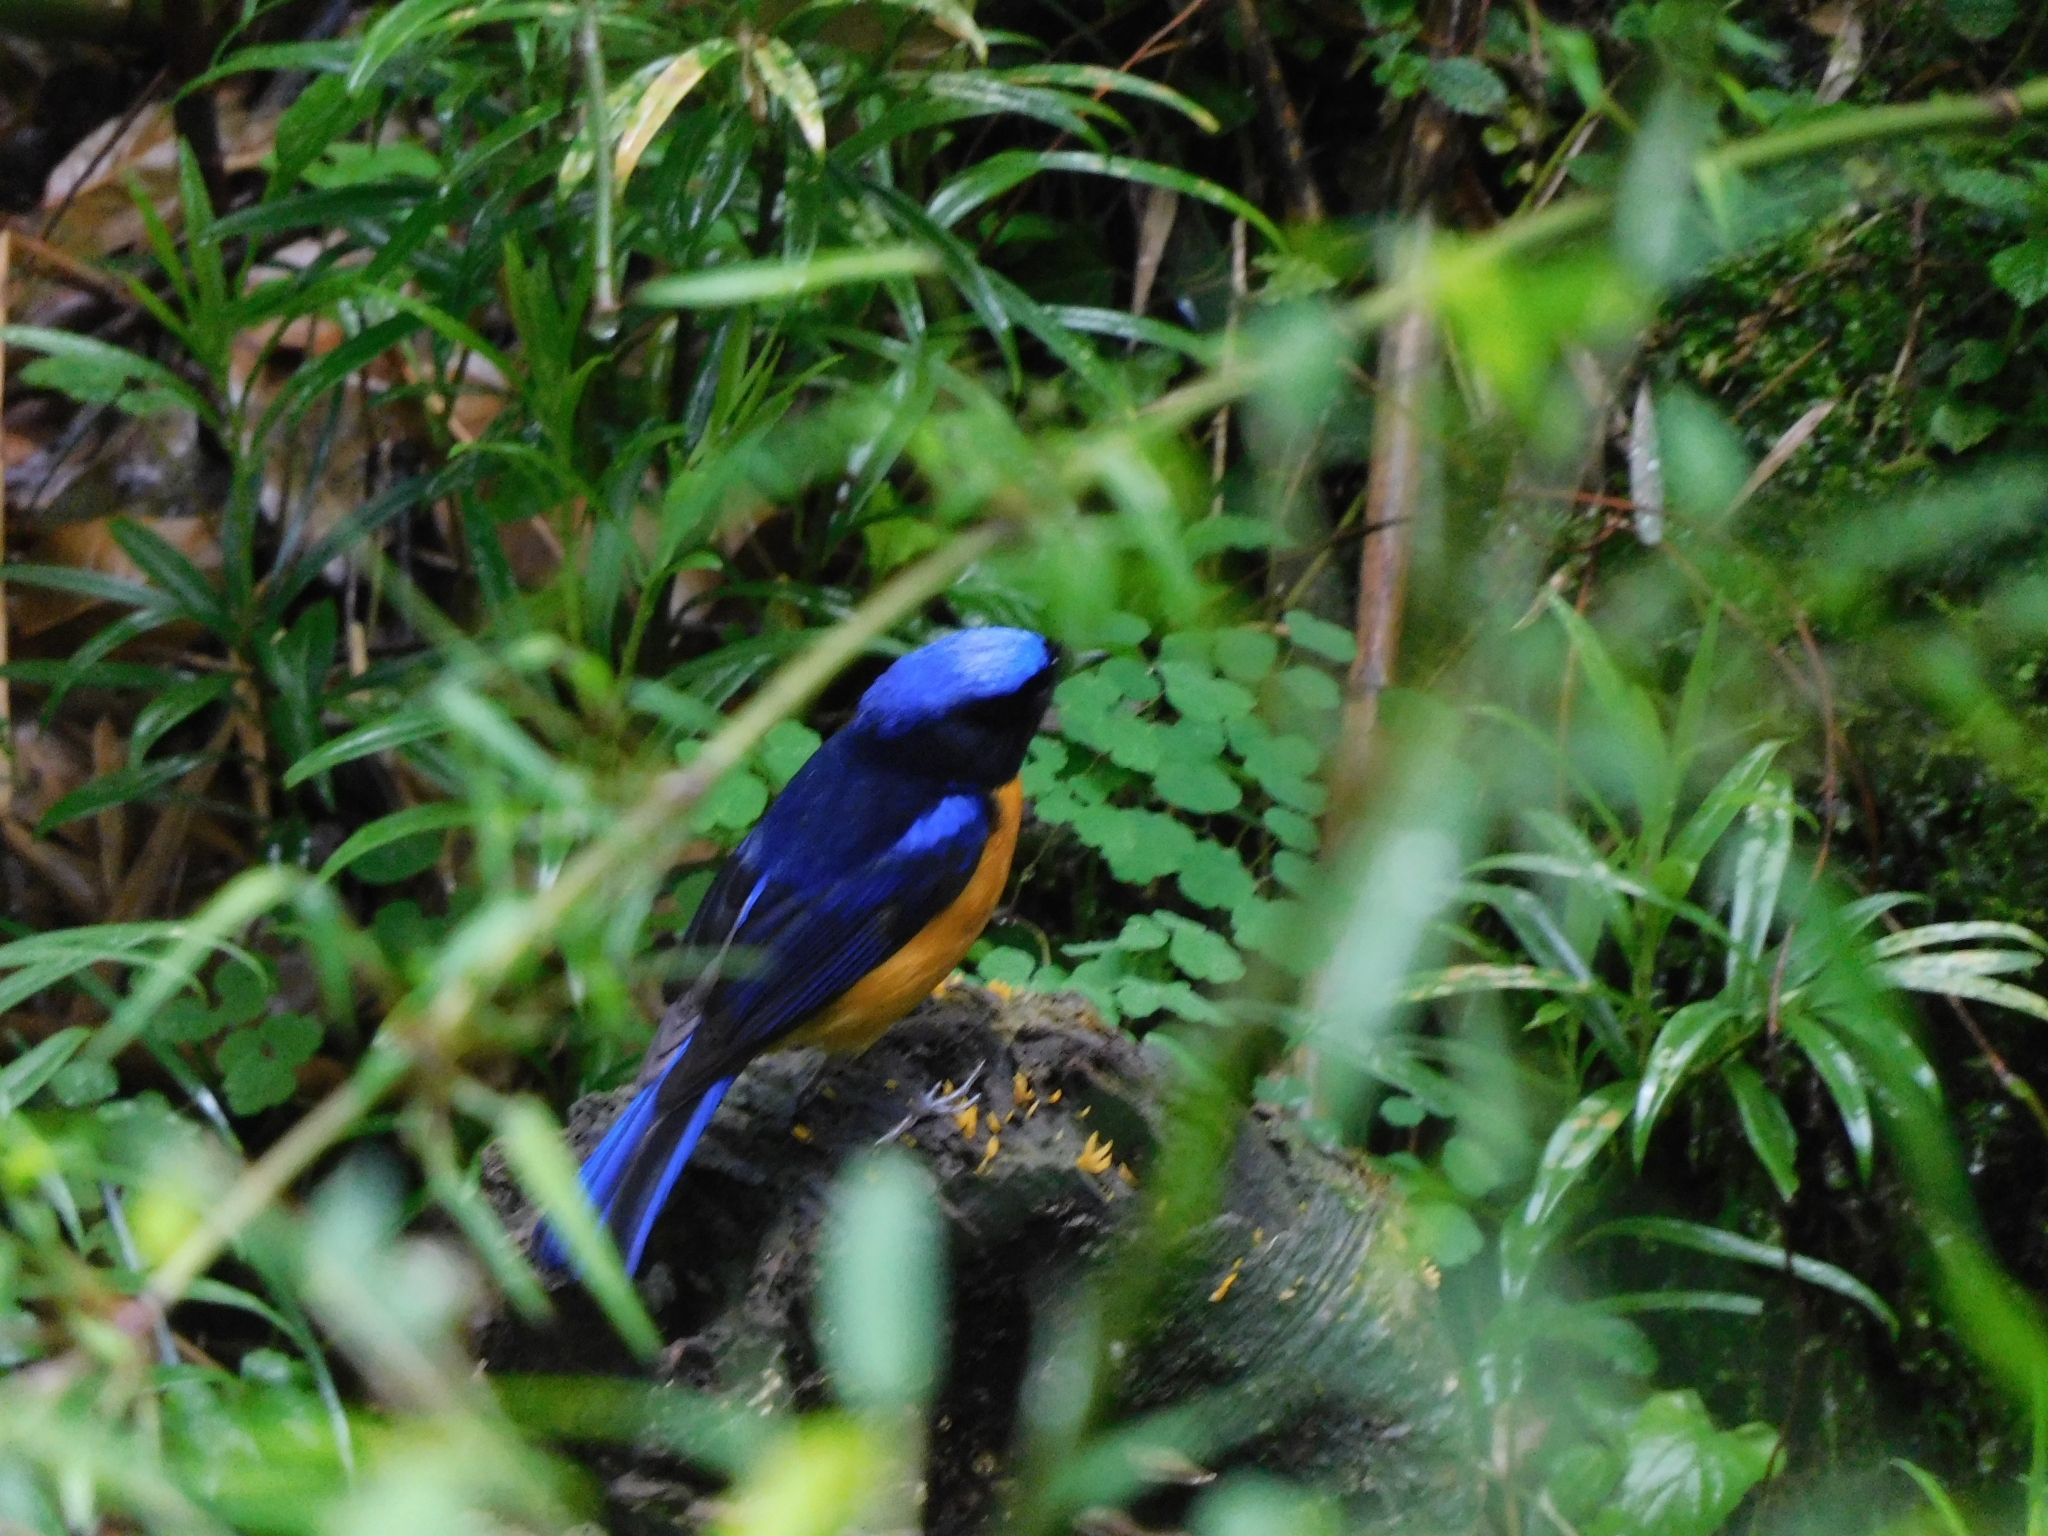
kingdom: Animalia
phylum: Chordata
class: Aves
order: Passeriformes
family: Muscicapidae
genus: Niltava
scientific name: Niltava sundara
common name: Rufous-bellied niltava
